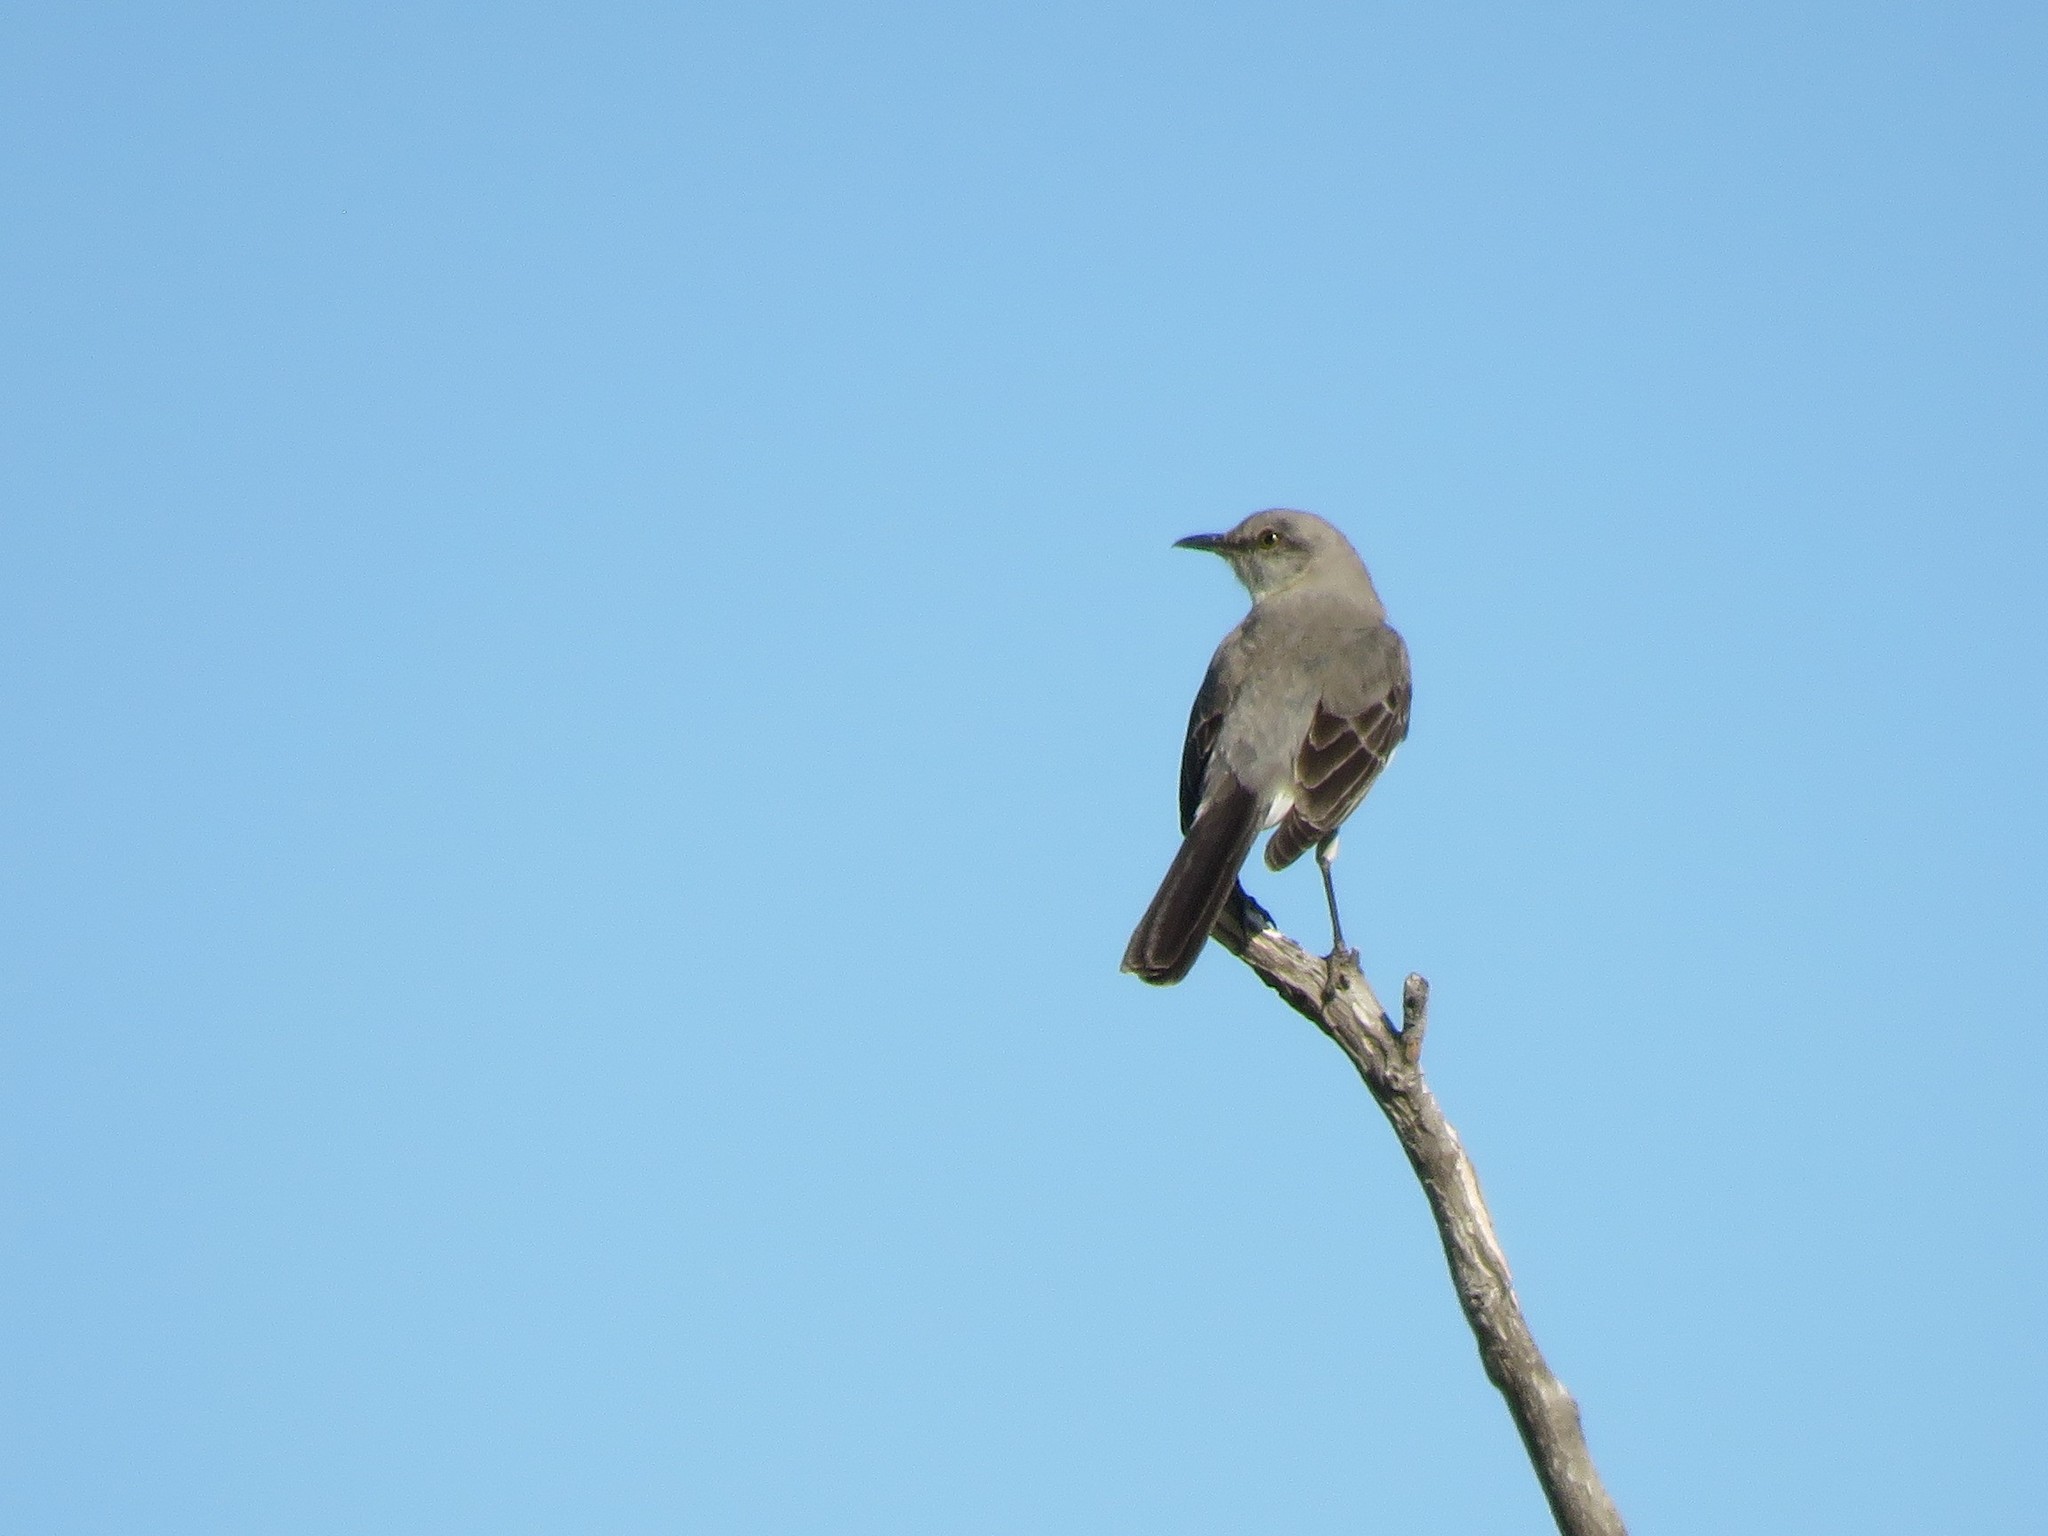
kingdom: Animalia
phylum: Chordata
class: Aves
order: Passeriformes
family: Mimidae
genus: Mimus
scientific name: Mimus polyglottos
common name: Northern mockingbird
